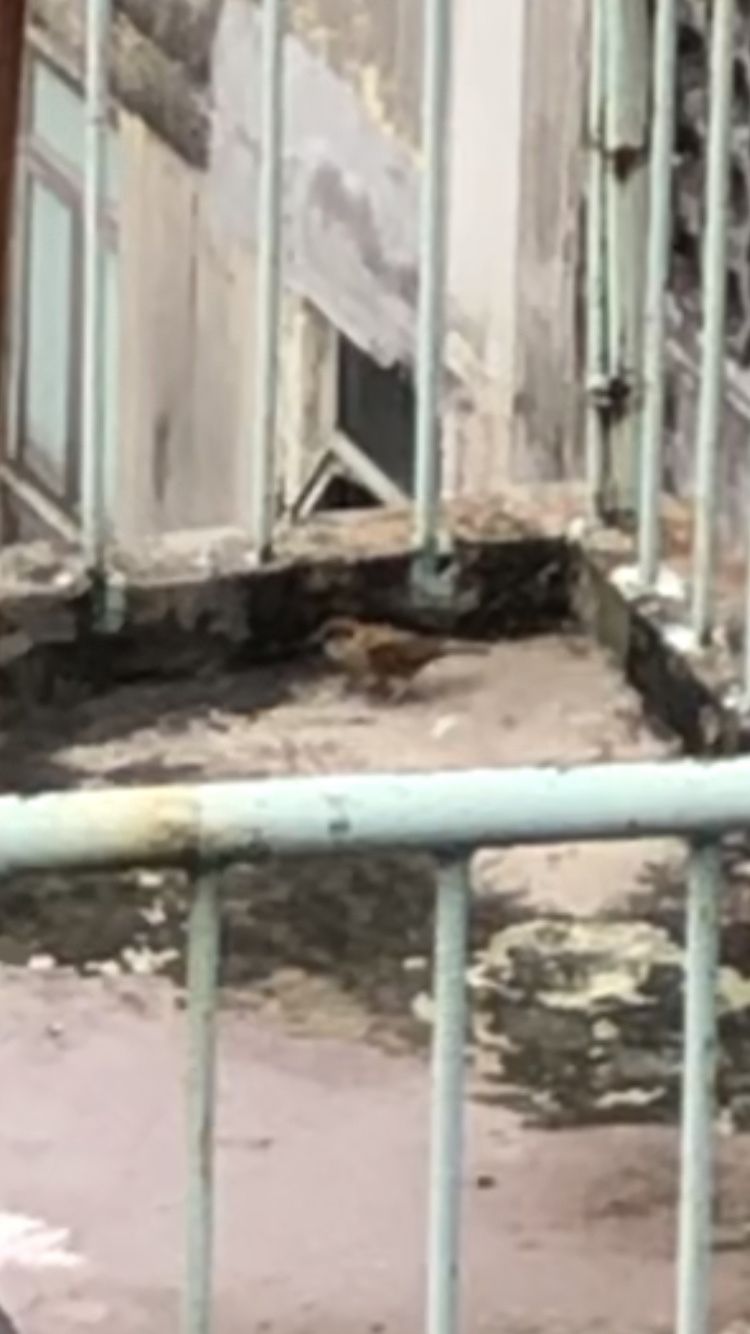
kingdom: Animalia
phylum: Chordata
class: Aves
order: Passeriformes
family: Passeridae
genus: Passer
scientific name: Passer montanus
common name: Eurasian tree sparrow
